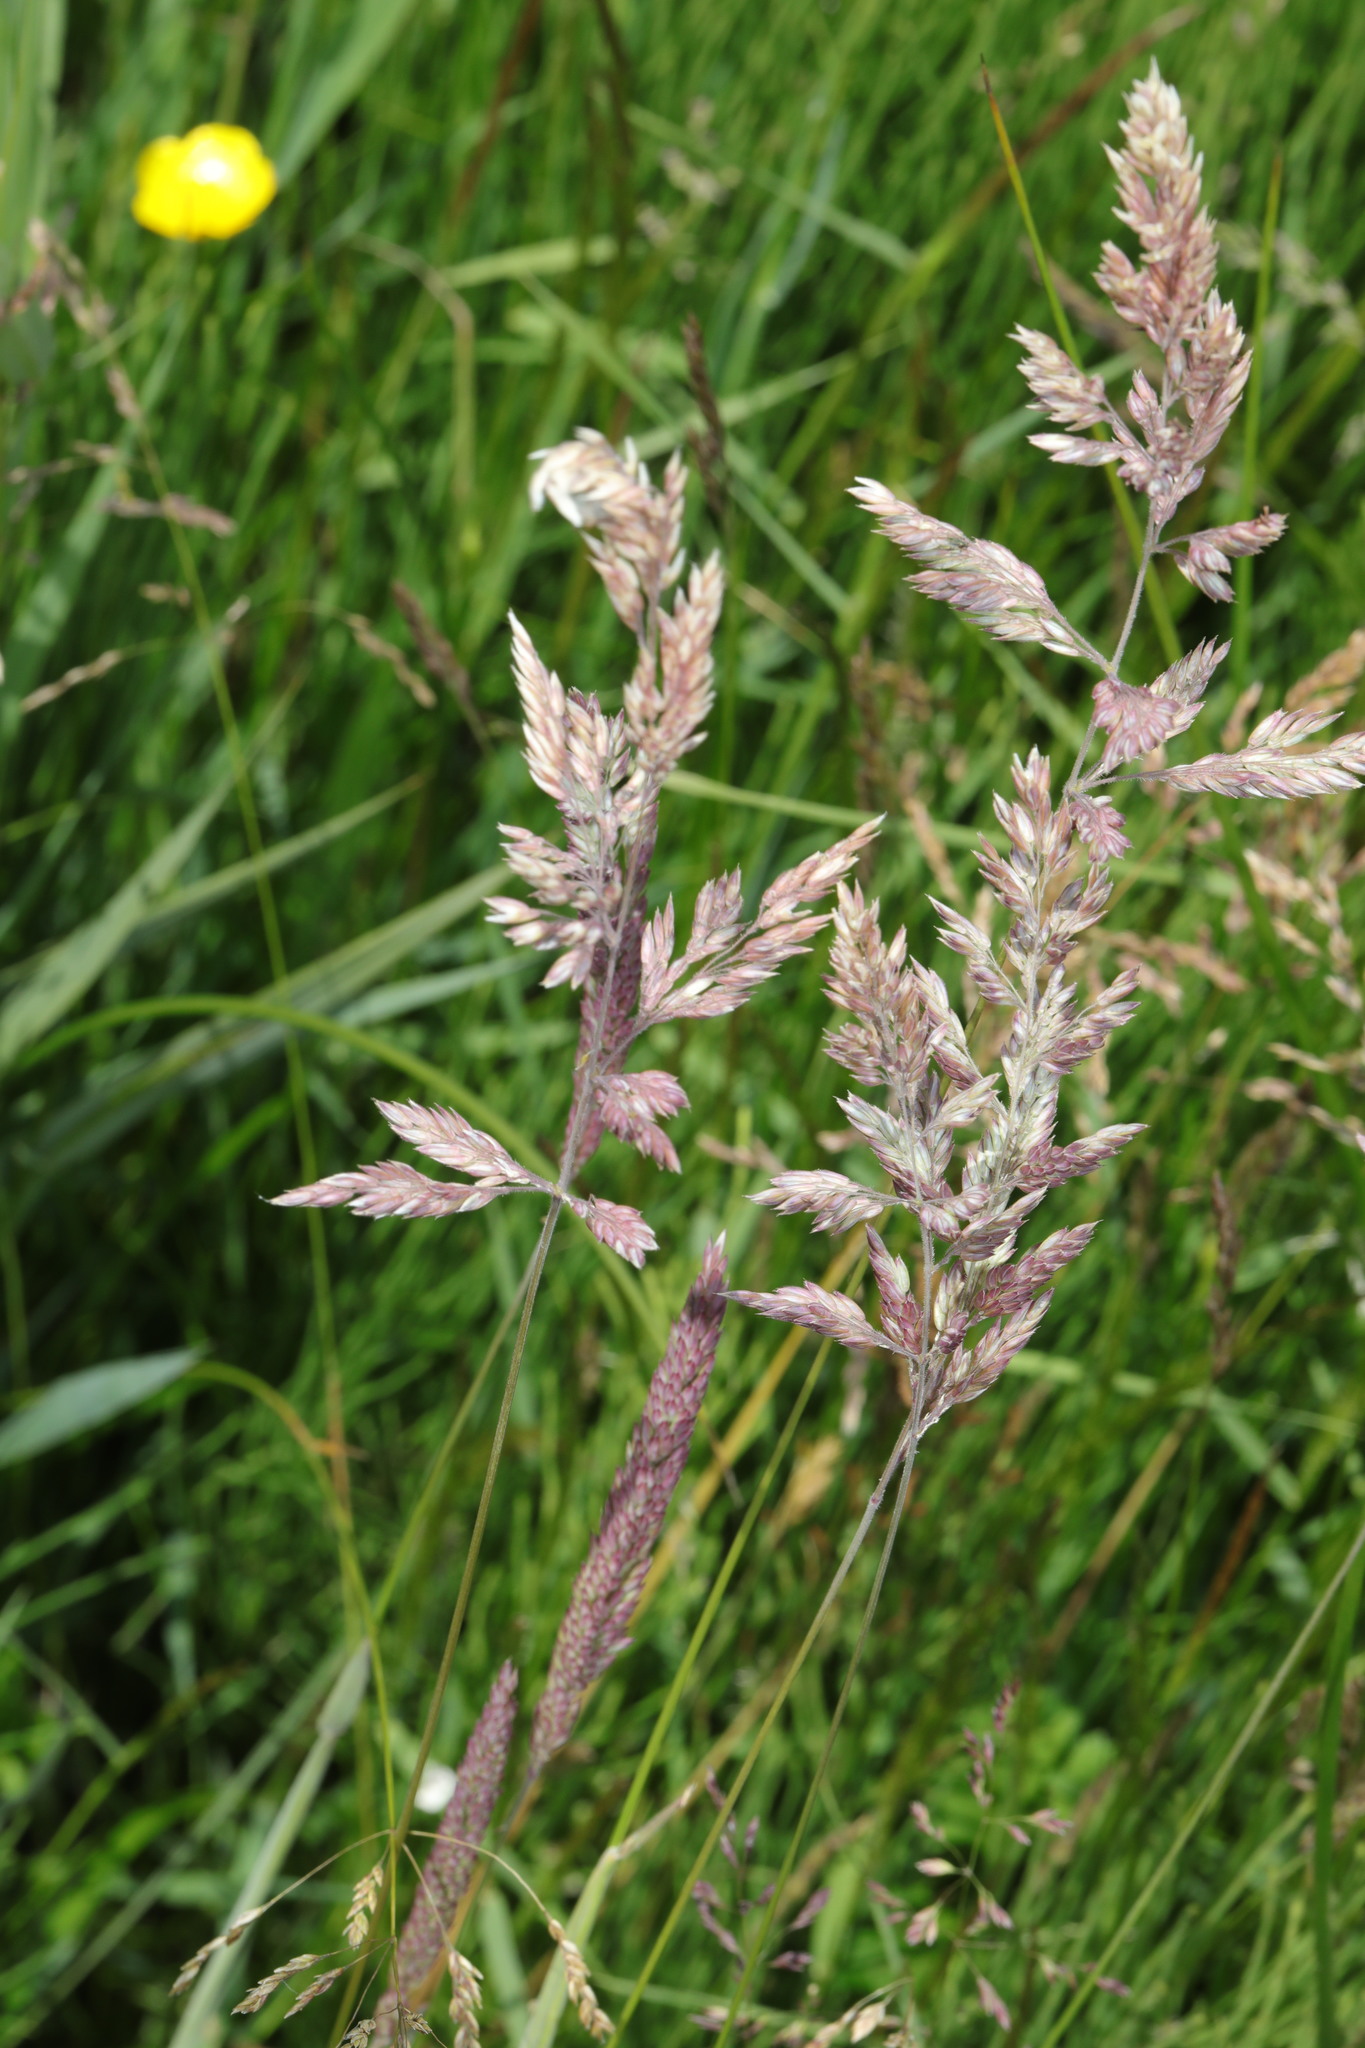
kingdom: Plantae
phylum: Tracheophyta
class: Liliopsida
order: Poales
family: Poaceae
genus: Holcus
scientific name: Holcus lanatus
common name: Yorkshire-fog
